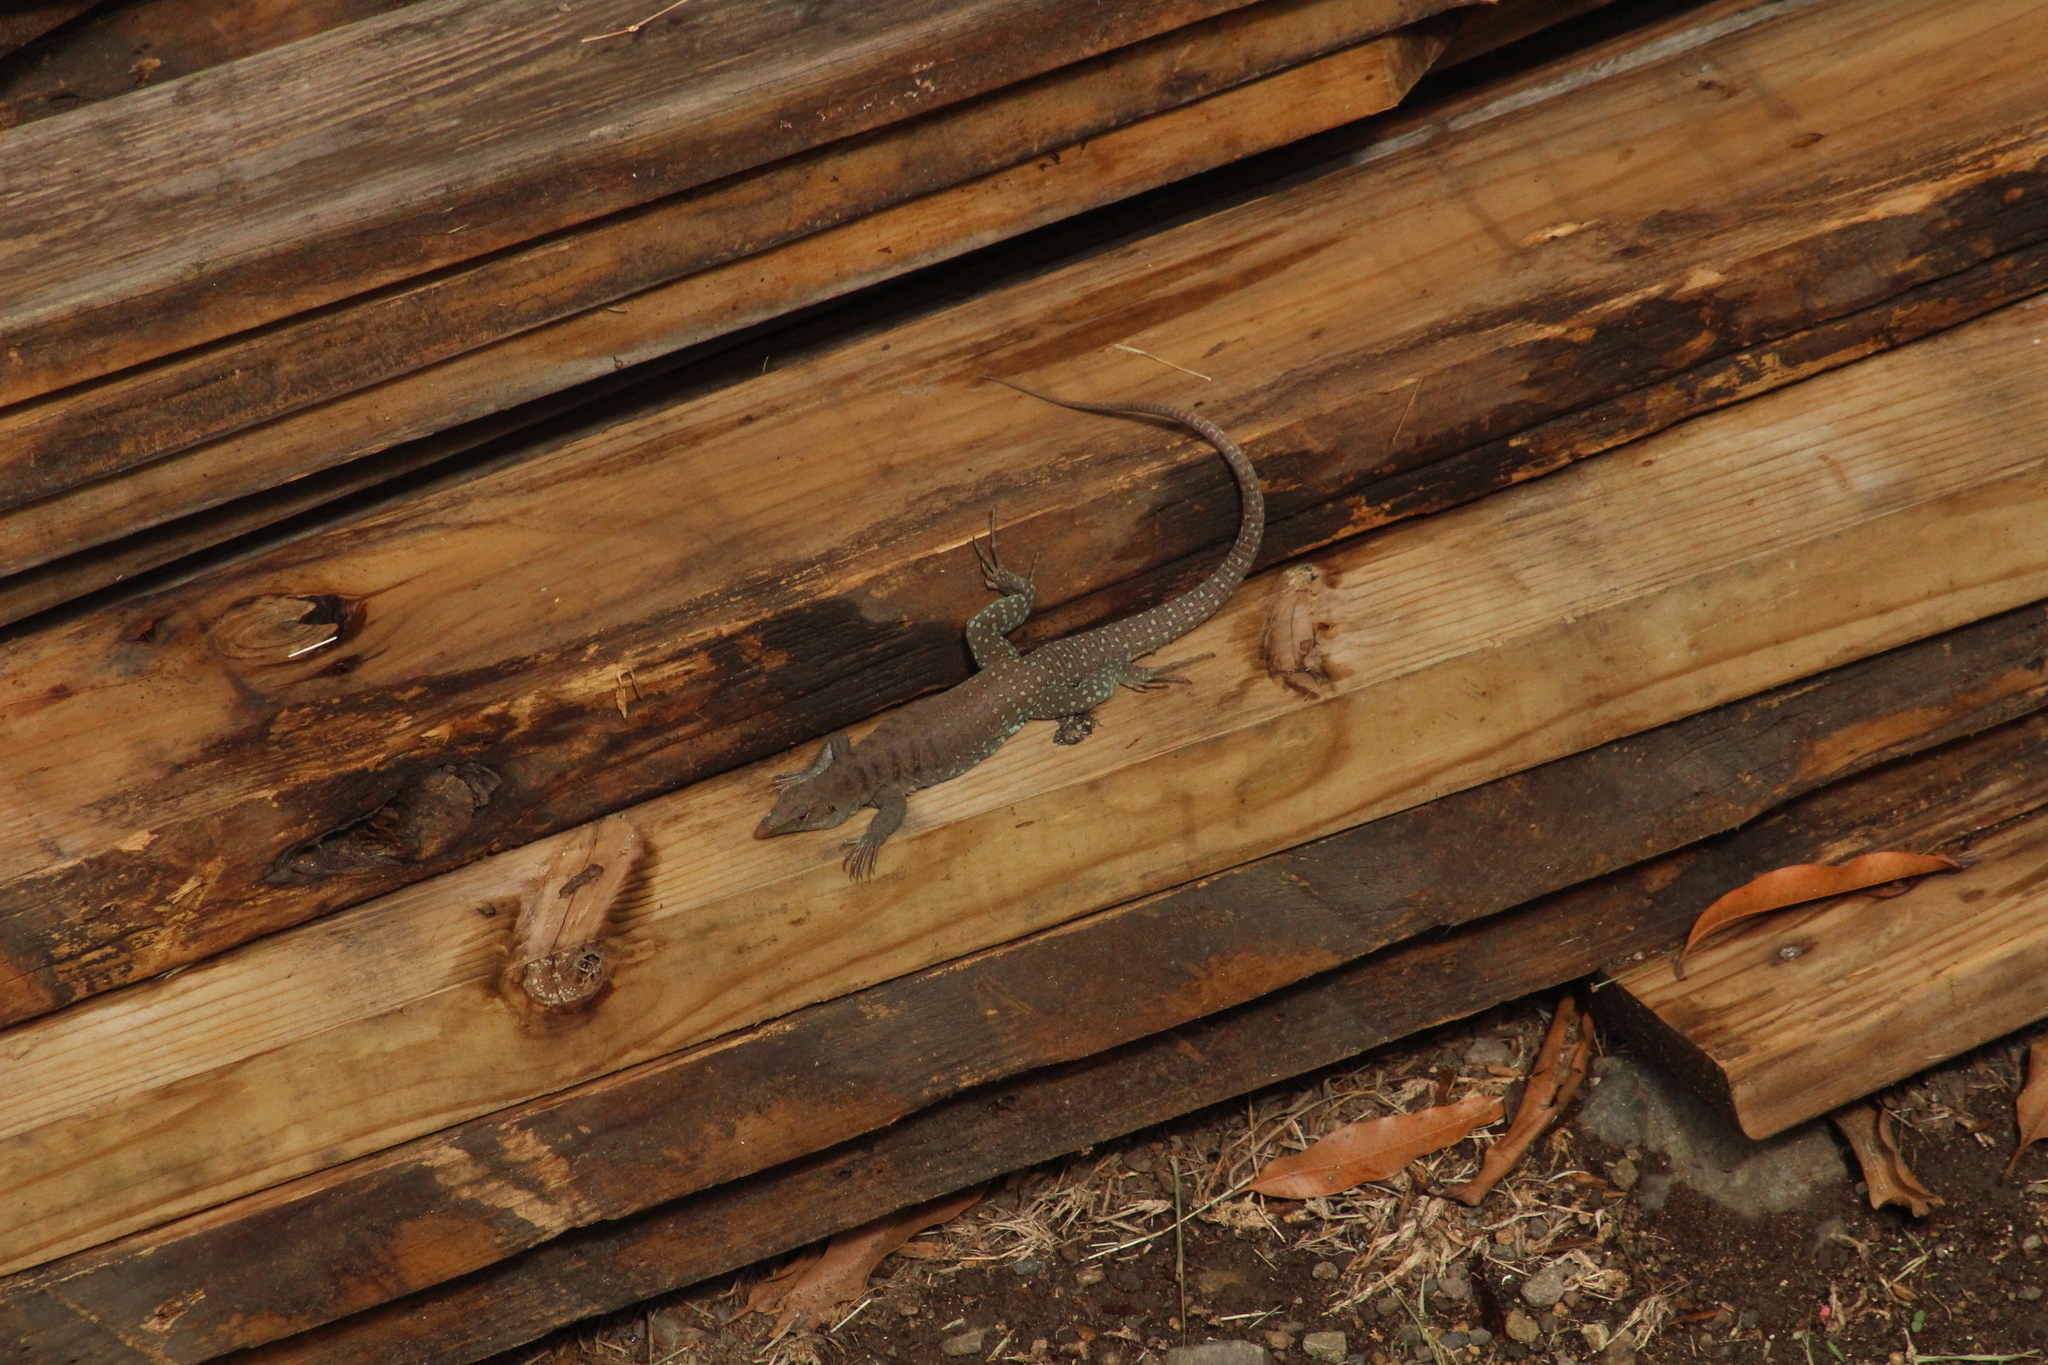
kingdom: Animalia
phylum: Chordata
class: Squamata
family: Teiidae
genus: Pholidoscelis
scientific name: Pholidoscelis plei
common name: Anguilla bank ameiva
